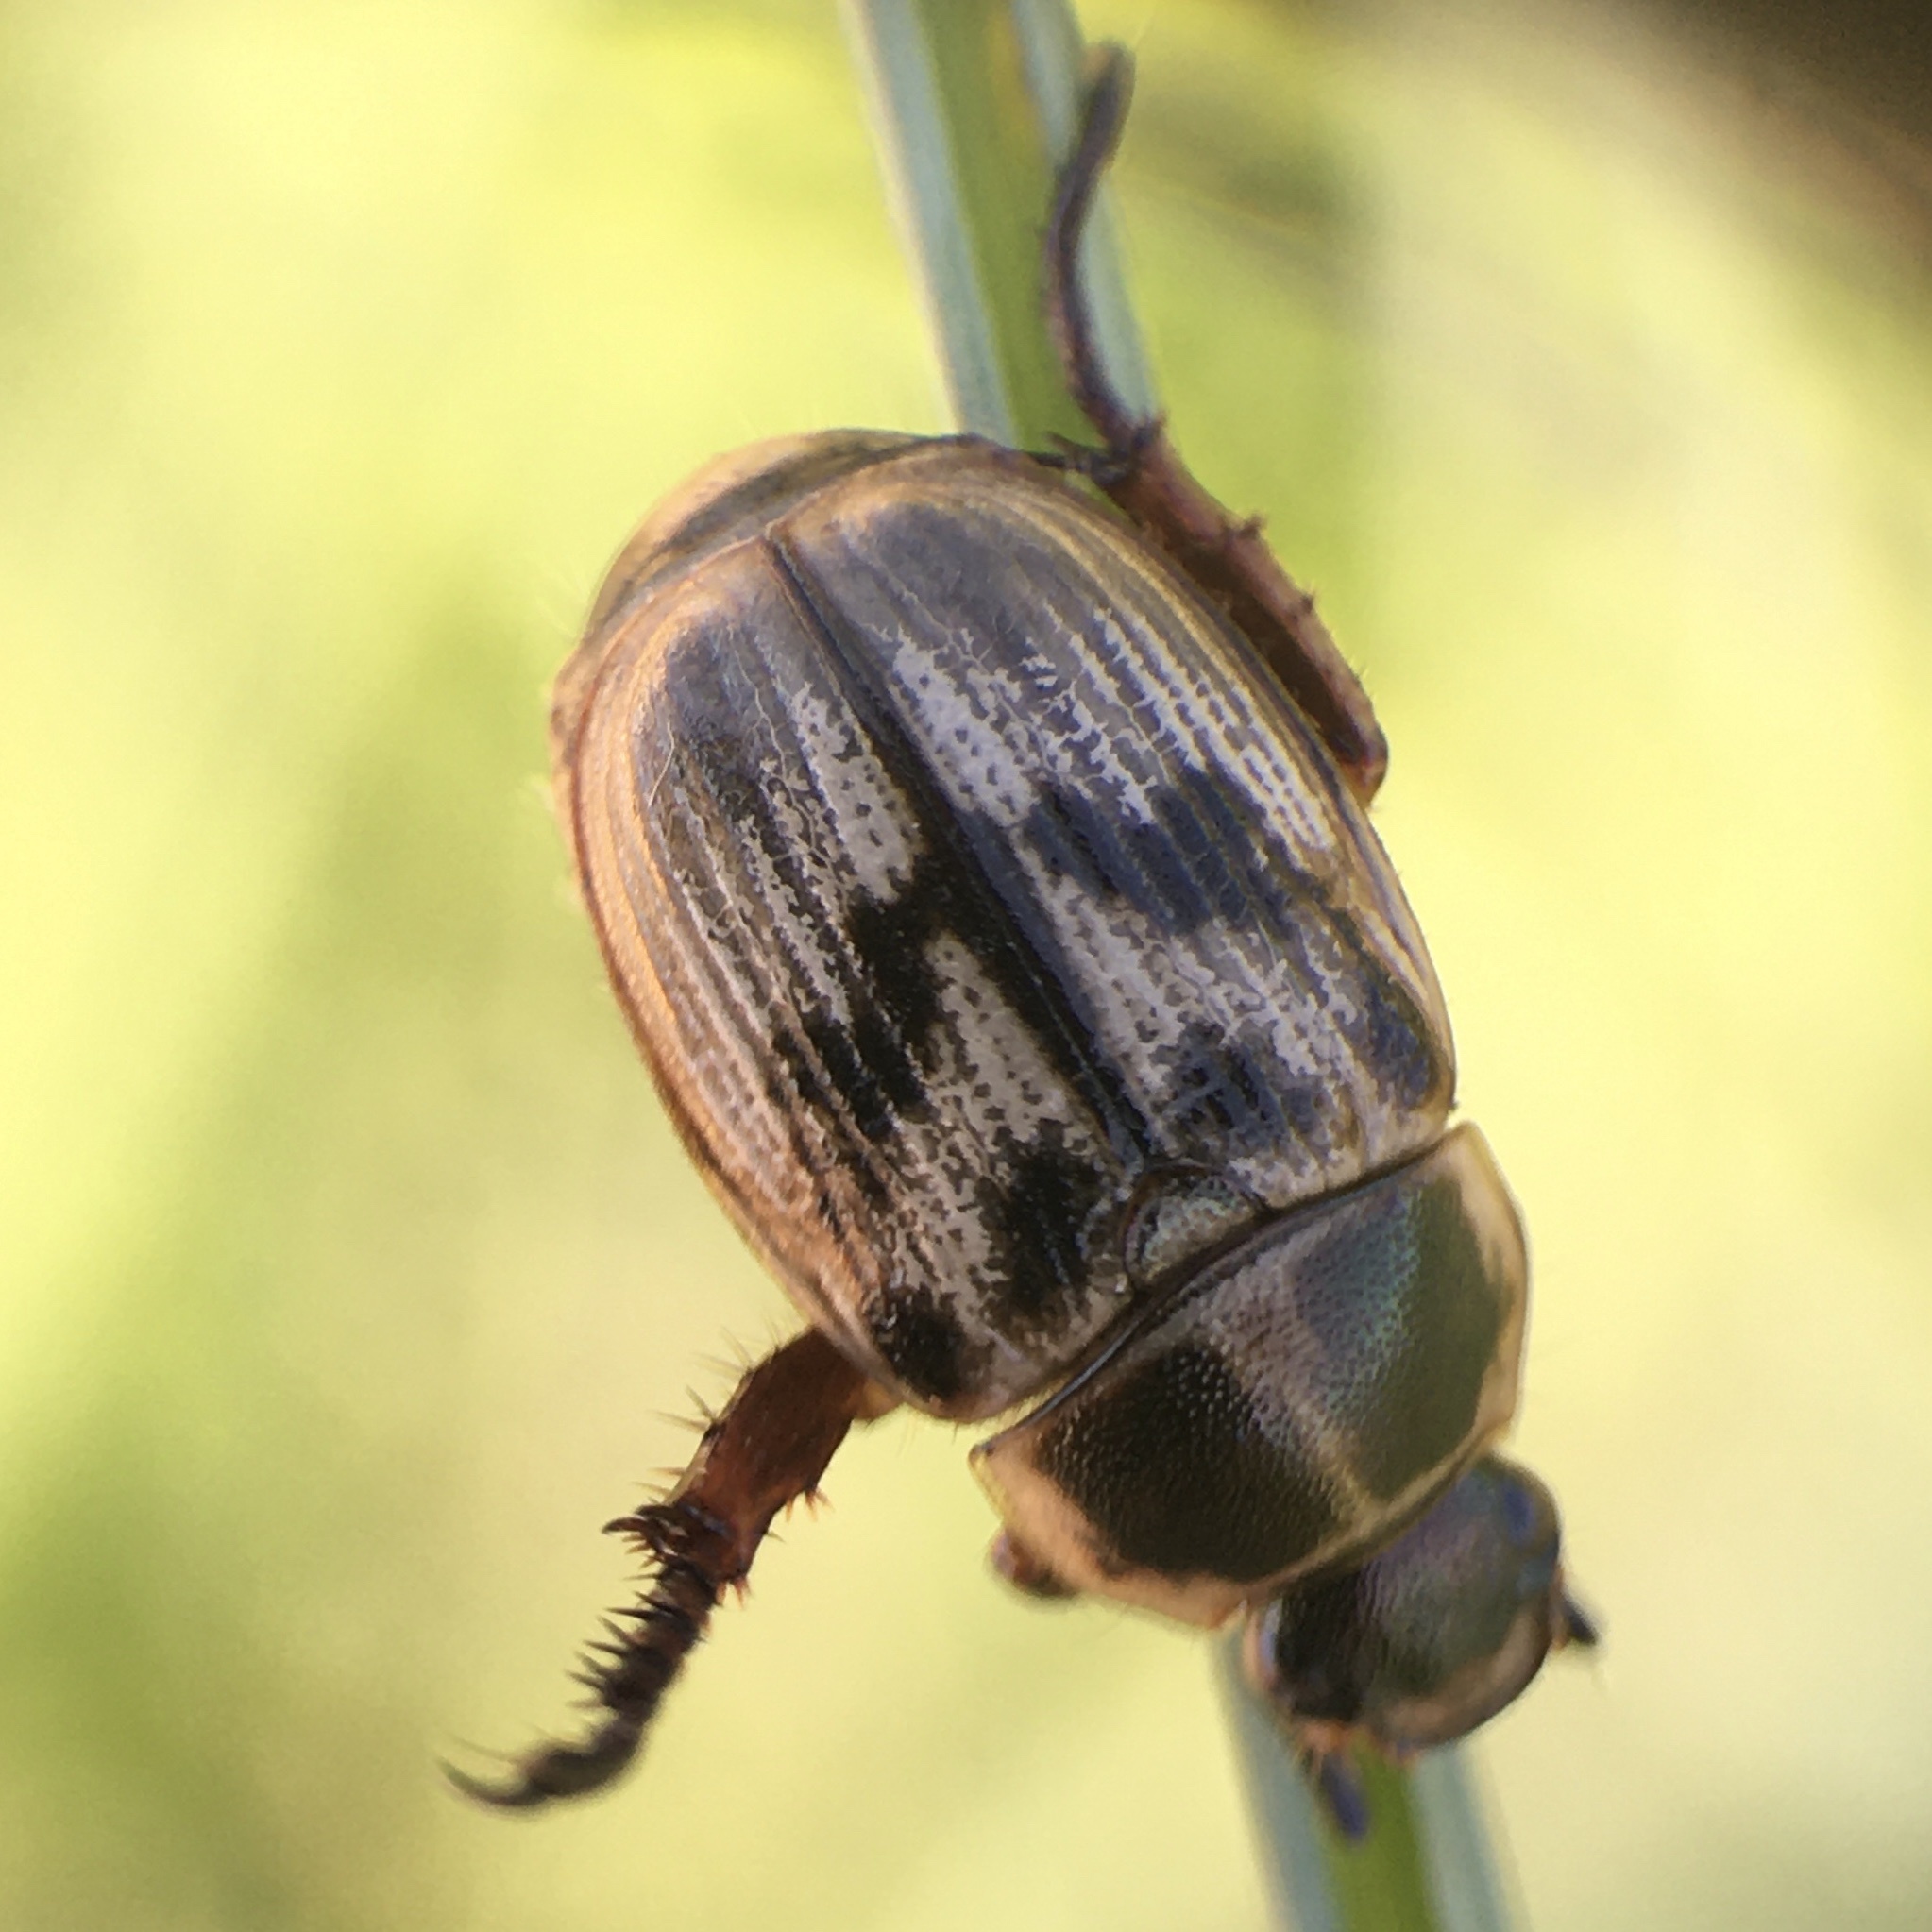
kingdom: Animalia
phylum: Arthropoda
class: Insecta
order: Coleoptera
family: Scarabaeidae
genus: Exomala
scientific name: Exomala orientalis
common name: Oriental beetle
